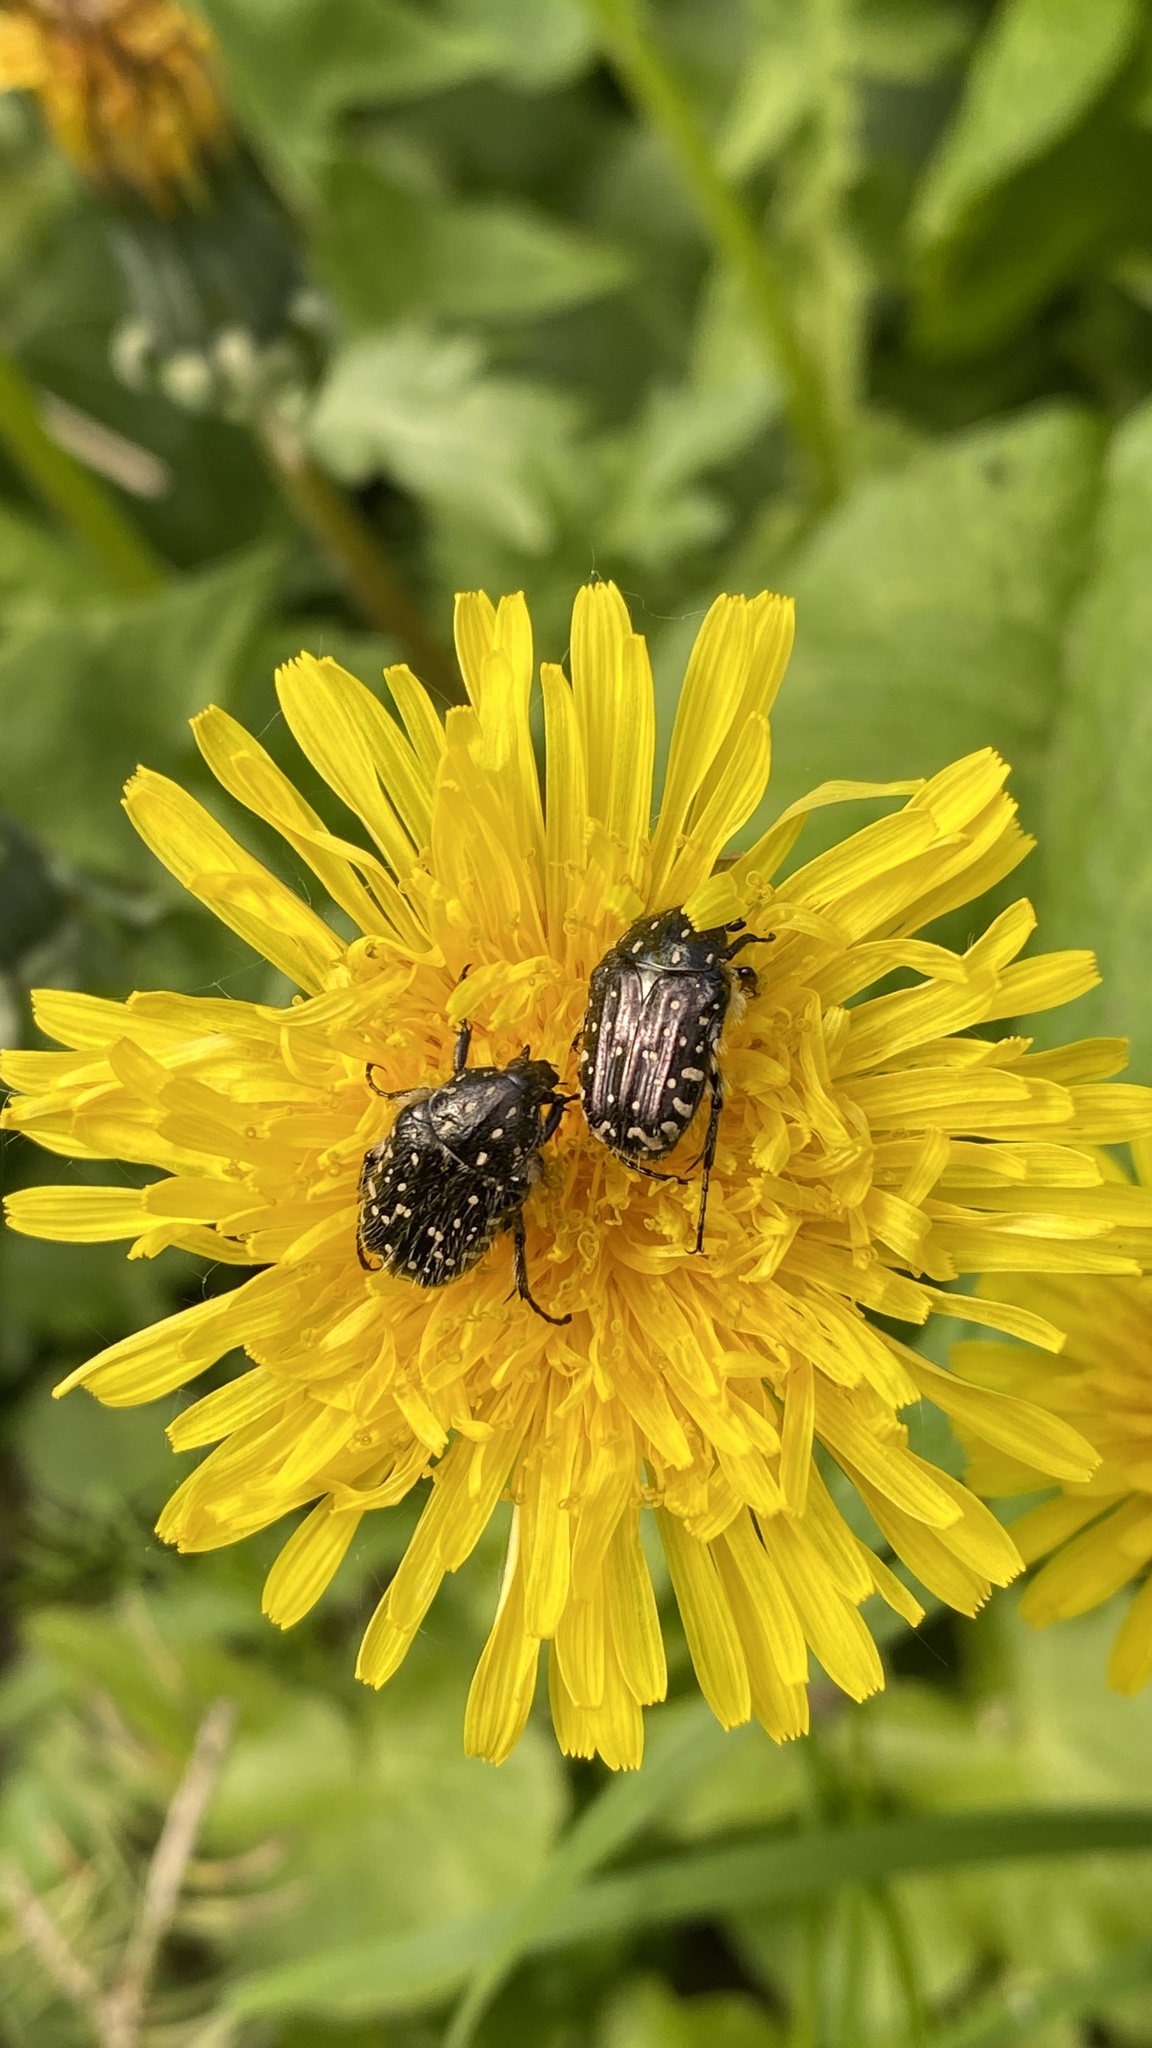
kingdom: Animalia
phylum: Arthropoda
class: Insecta
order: Coleoptera
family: Scarabaeidae
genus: Oxythyrea
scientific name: Oxythyrea funesta
